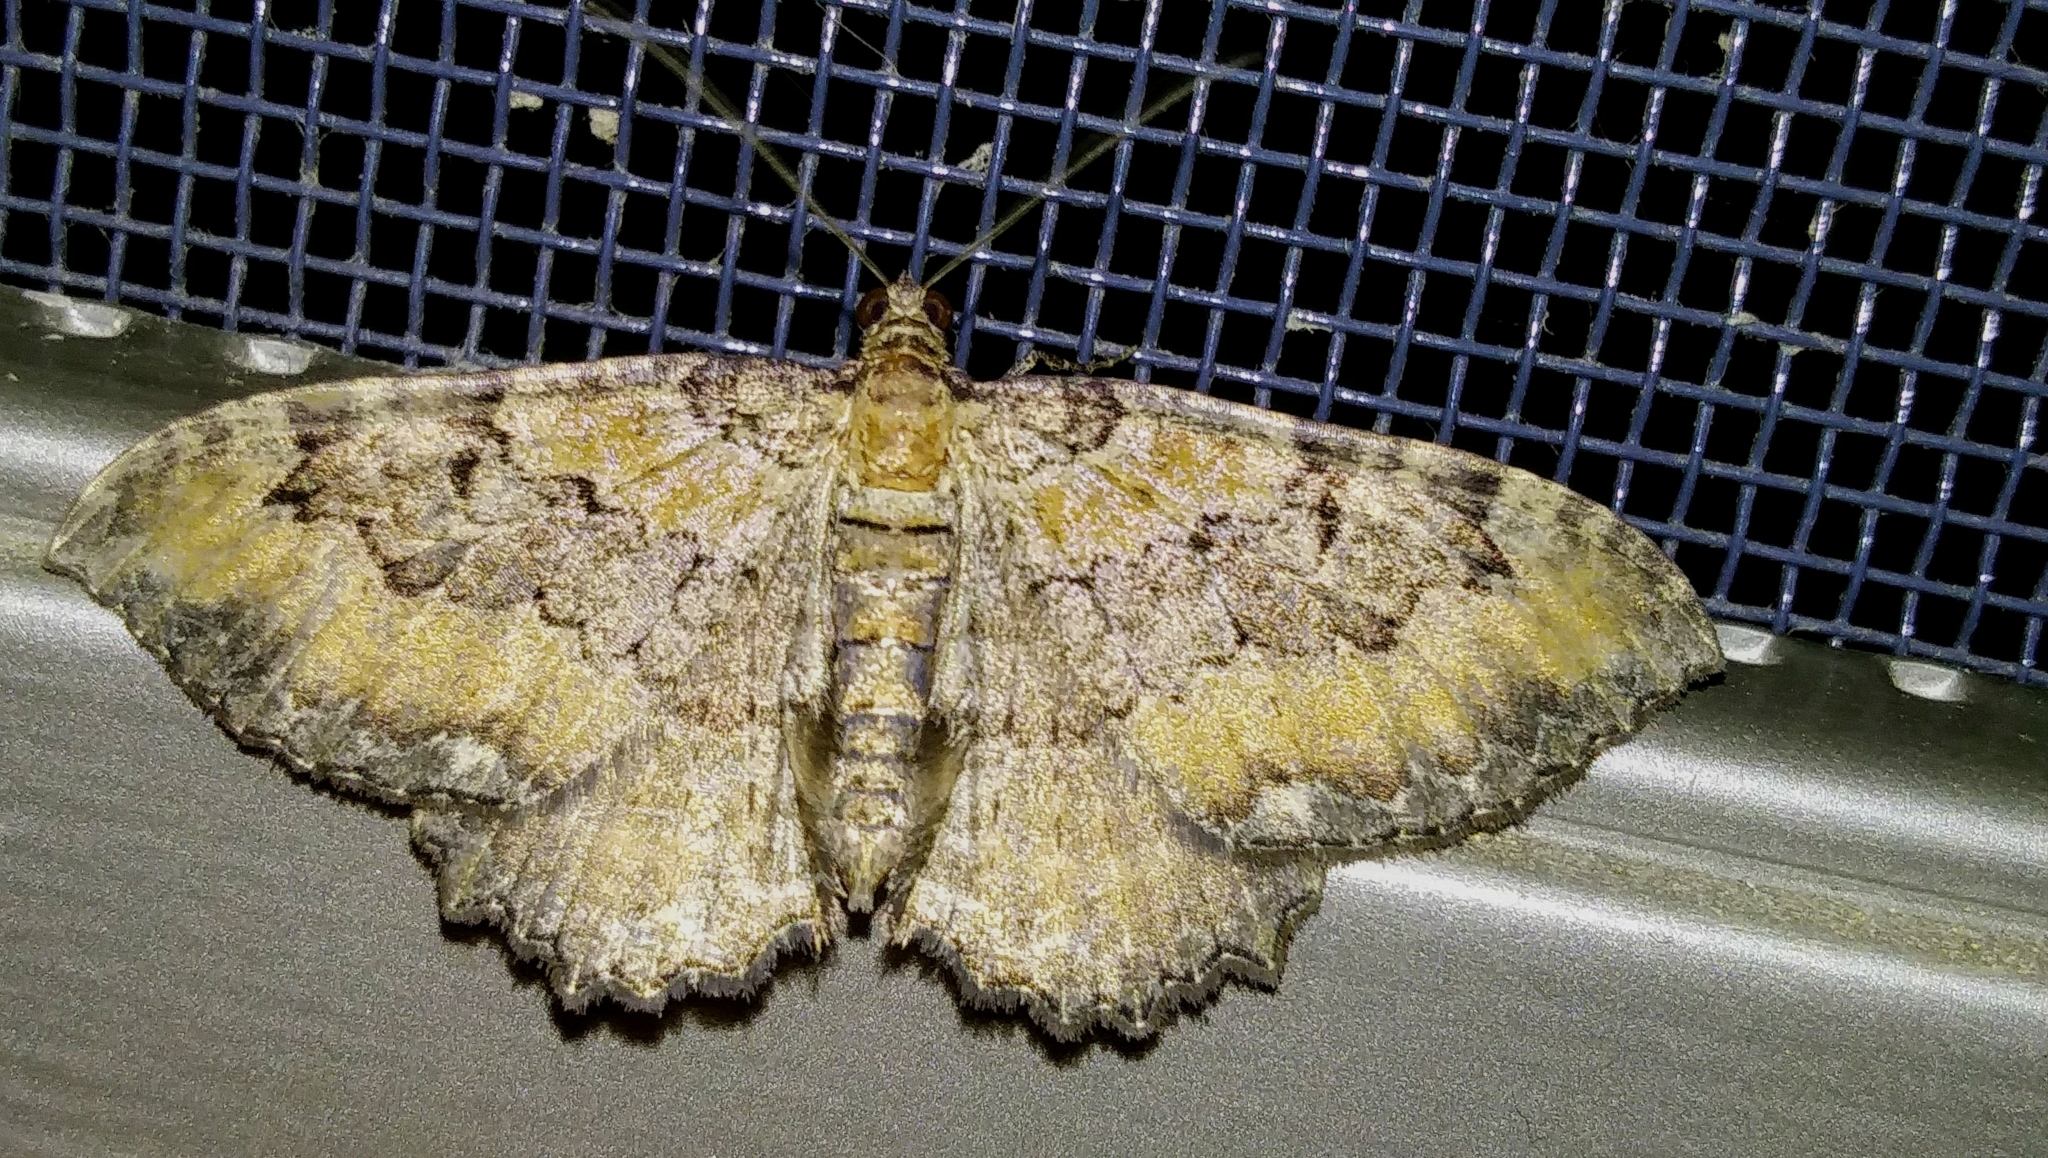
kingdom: Animalia
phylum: Arthropoda
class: Insecta
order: Lepidoptera
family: Geometridae
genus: Rheumaptera
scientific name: Rheumaptera
